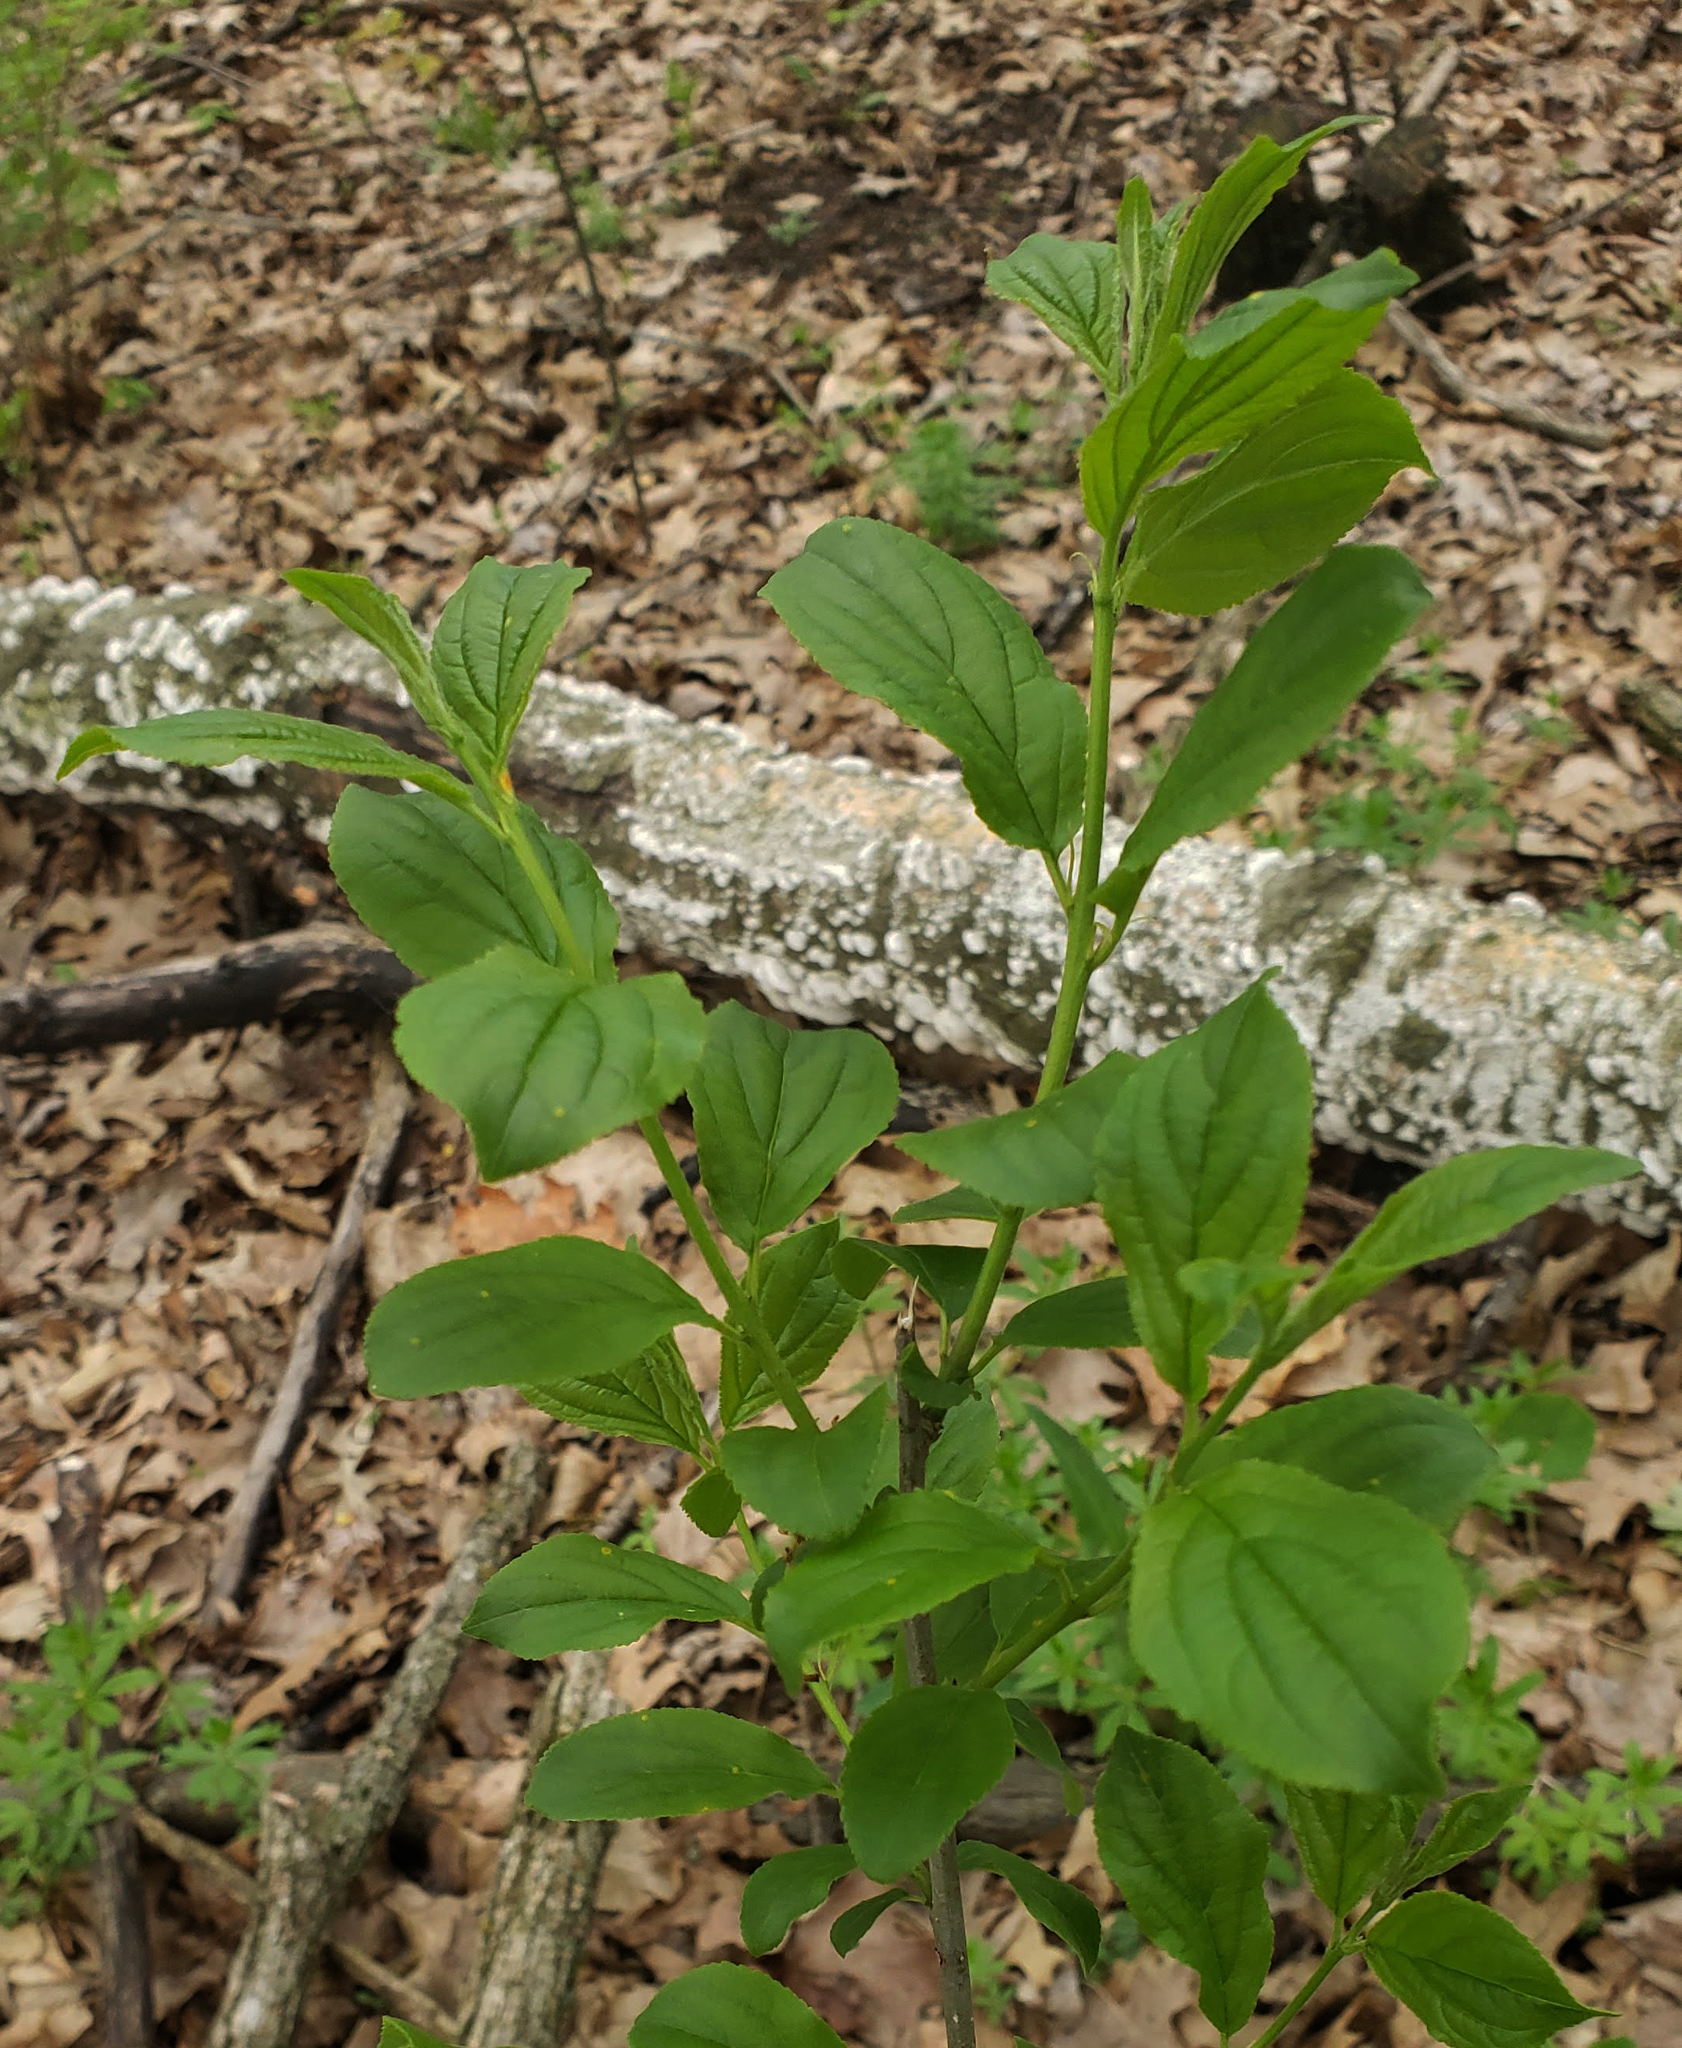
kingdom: Plantae
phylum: Tracheophyta
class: Magnoliopsida
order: Rosales
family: Rhamnaceae
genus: Rhamnus
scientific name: Rhamnus cathartica
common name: Common buckthorn
